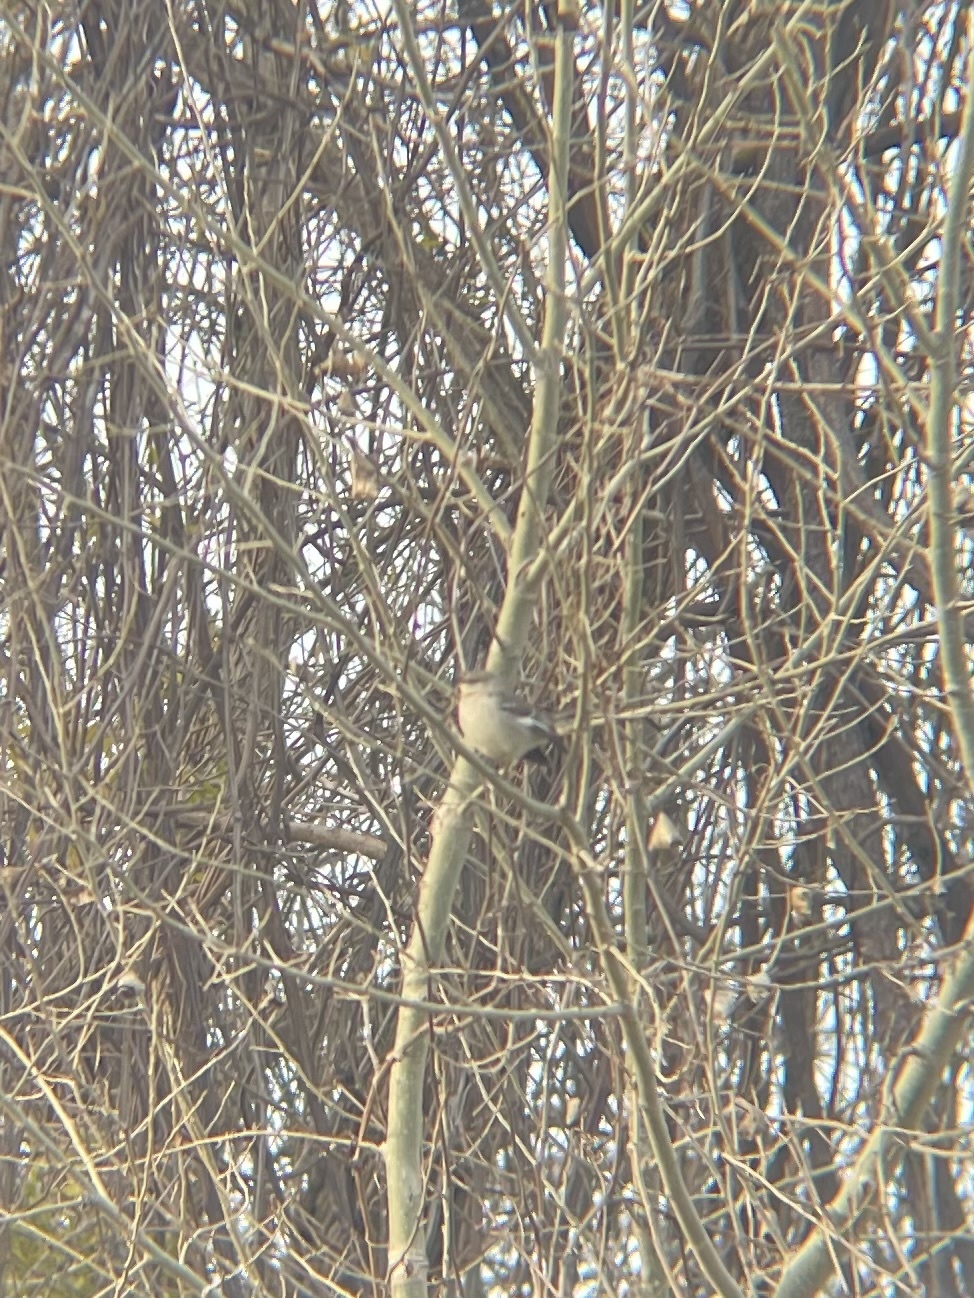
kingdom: Animalia
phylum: Chordata
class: Aves
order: Passeriformes
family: Mimidae
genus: Mimus
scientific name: Mimus polyglottos
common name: Northern mockingbird
